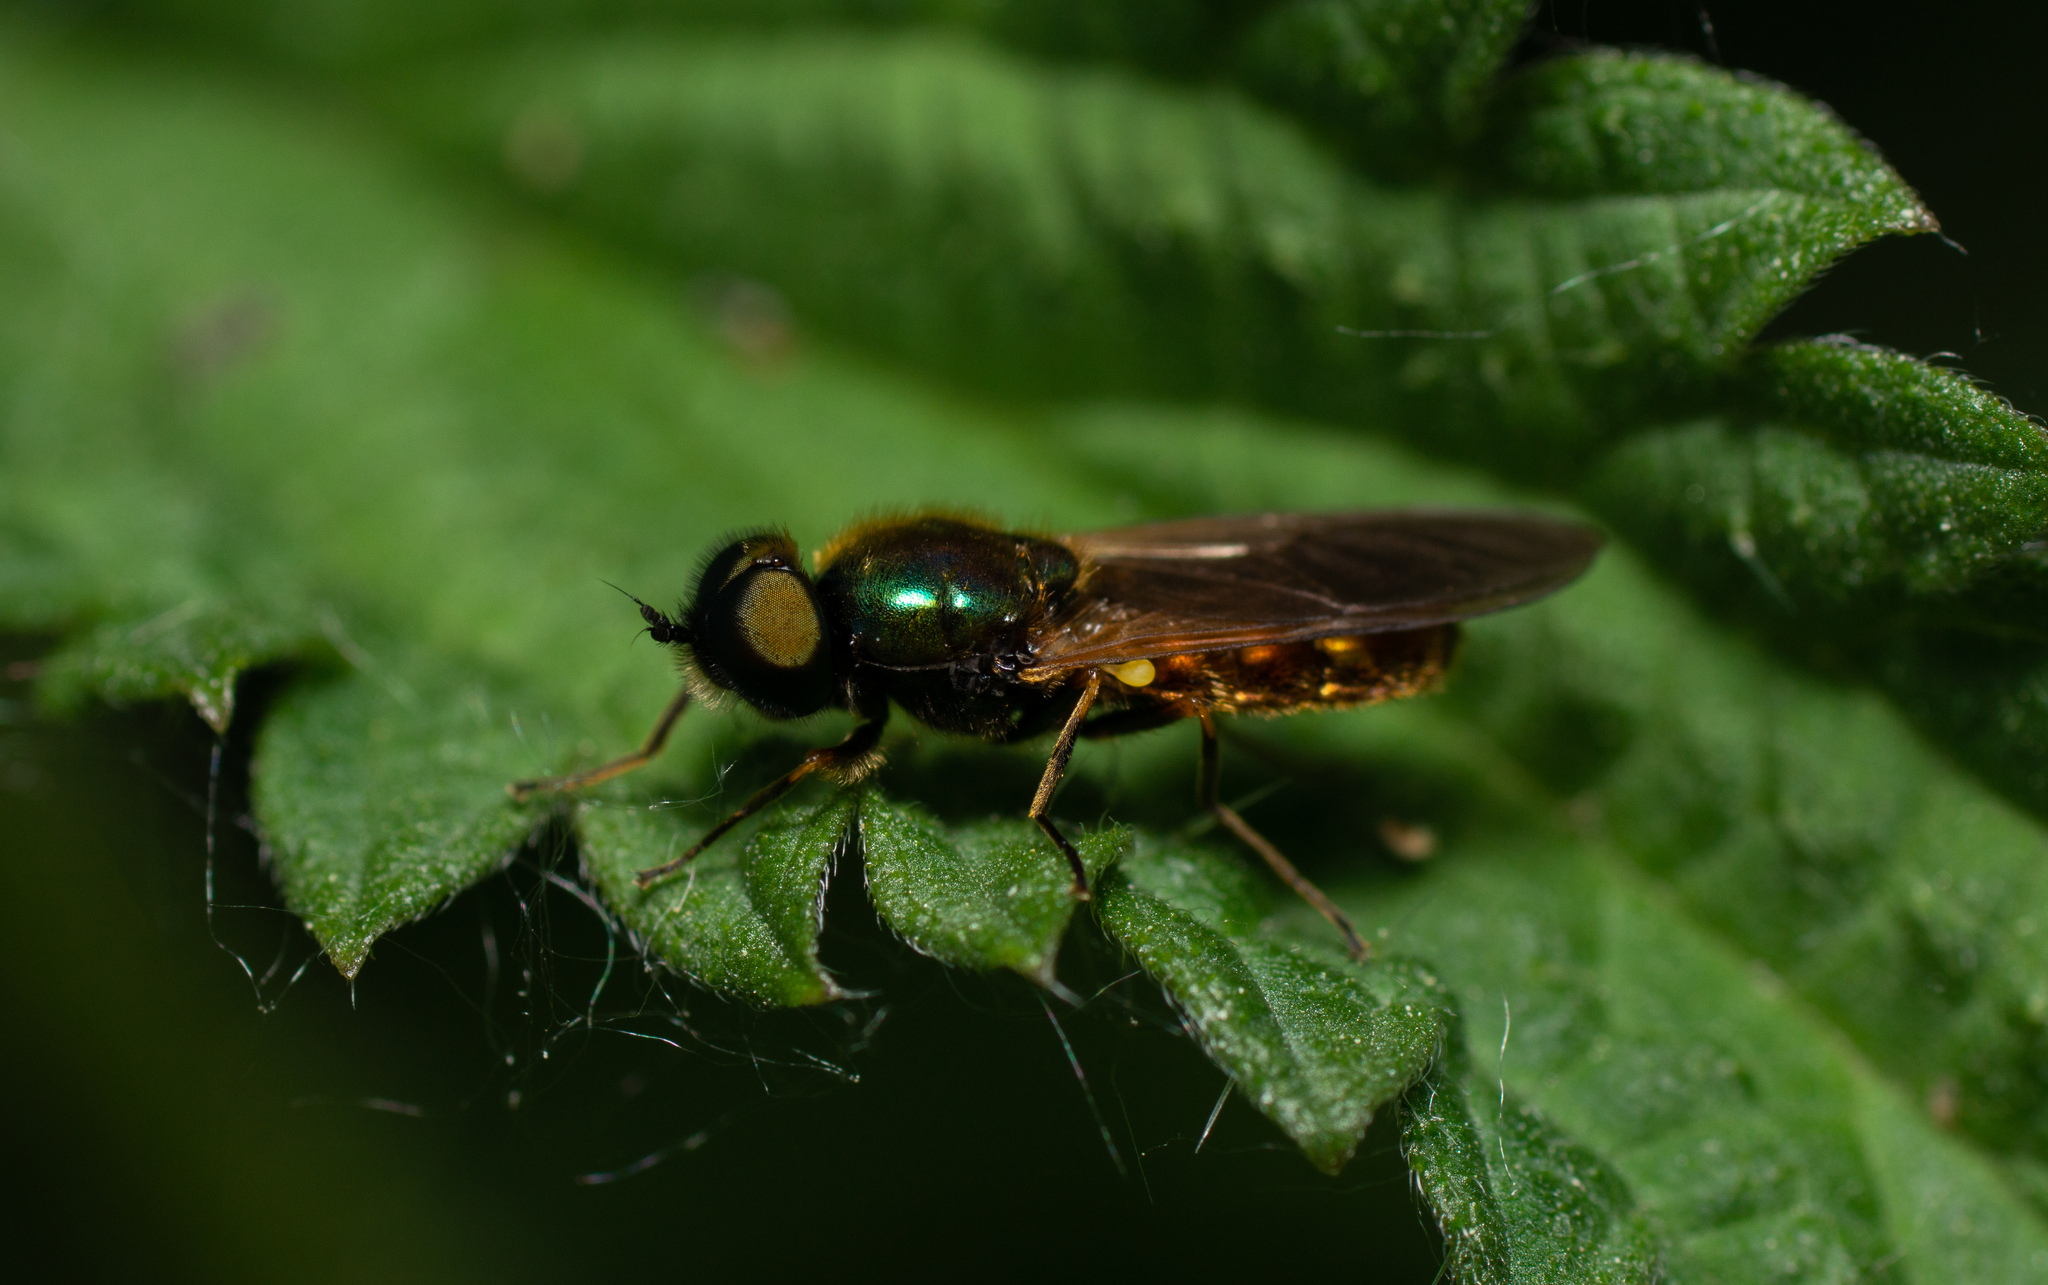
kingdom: Animalia
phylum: Arthropoda
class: Insecta
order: Diptera
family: Stratiomyidae
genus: Chloromyia
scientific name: Chloromyia formosa
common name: Soldier fly
